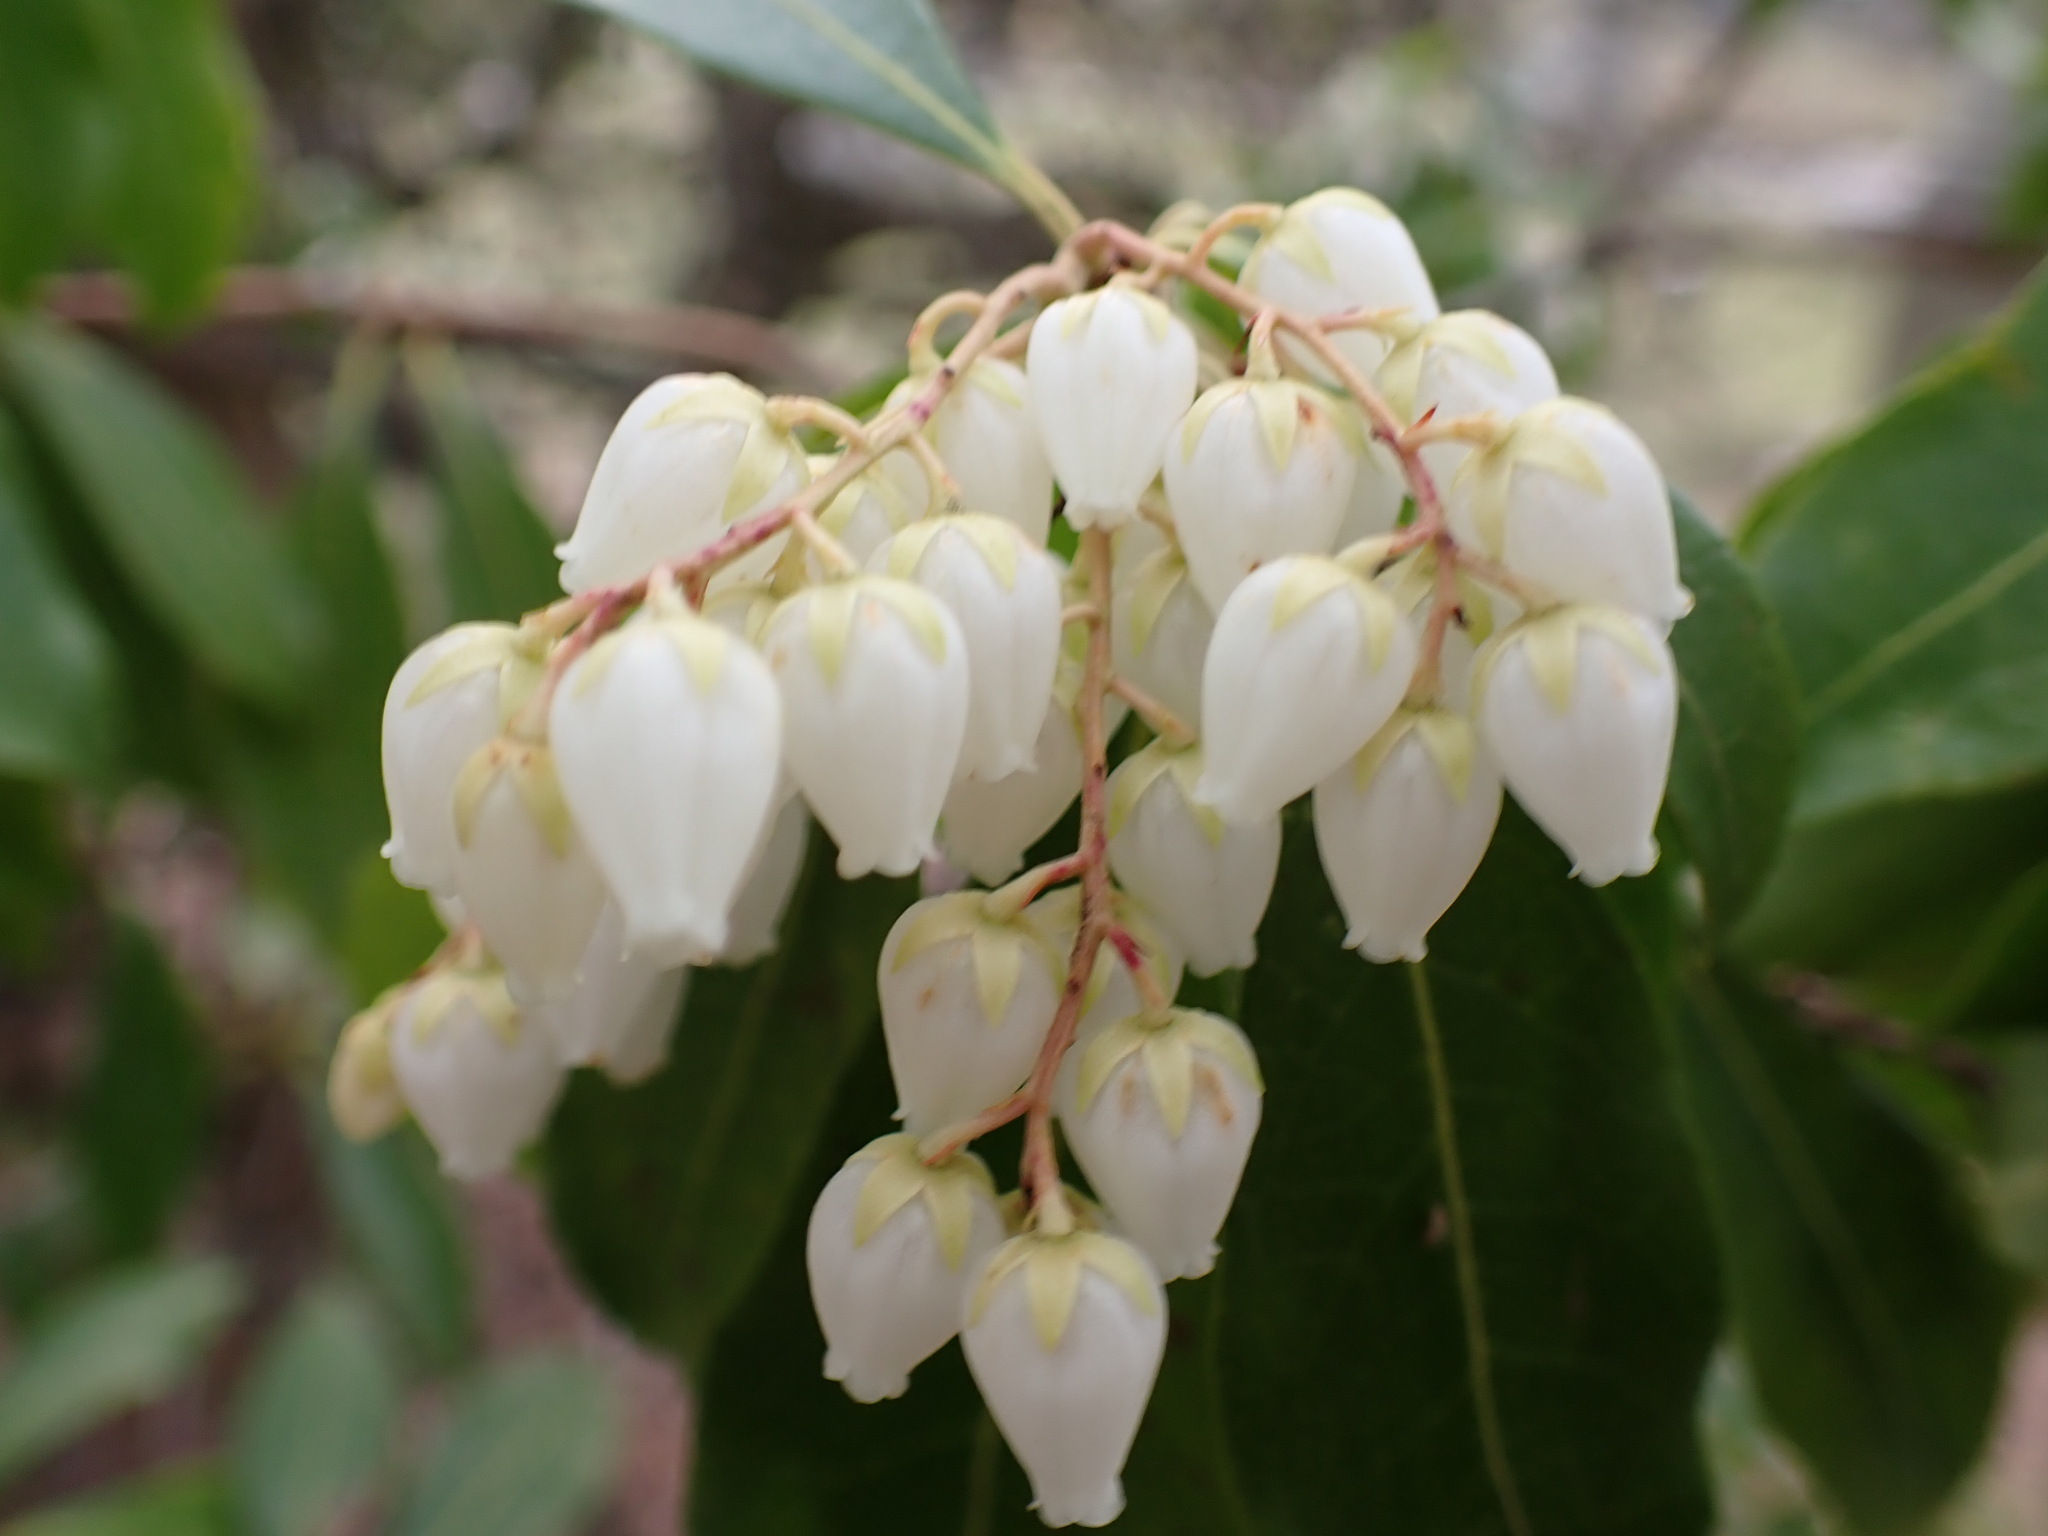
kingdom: Plantae
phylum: Tracheophyta
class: Magnoliopsida
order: Ericales
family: Ericaceae
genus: Pieris
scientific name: Pieris japonica
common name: Japanese pieris
